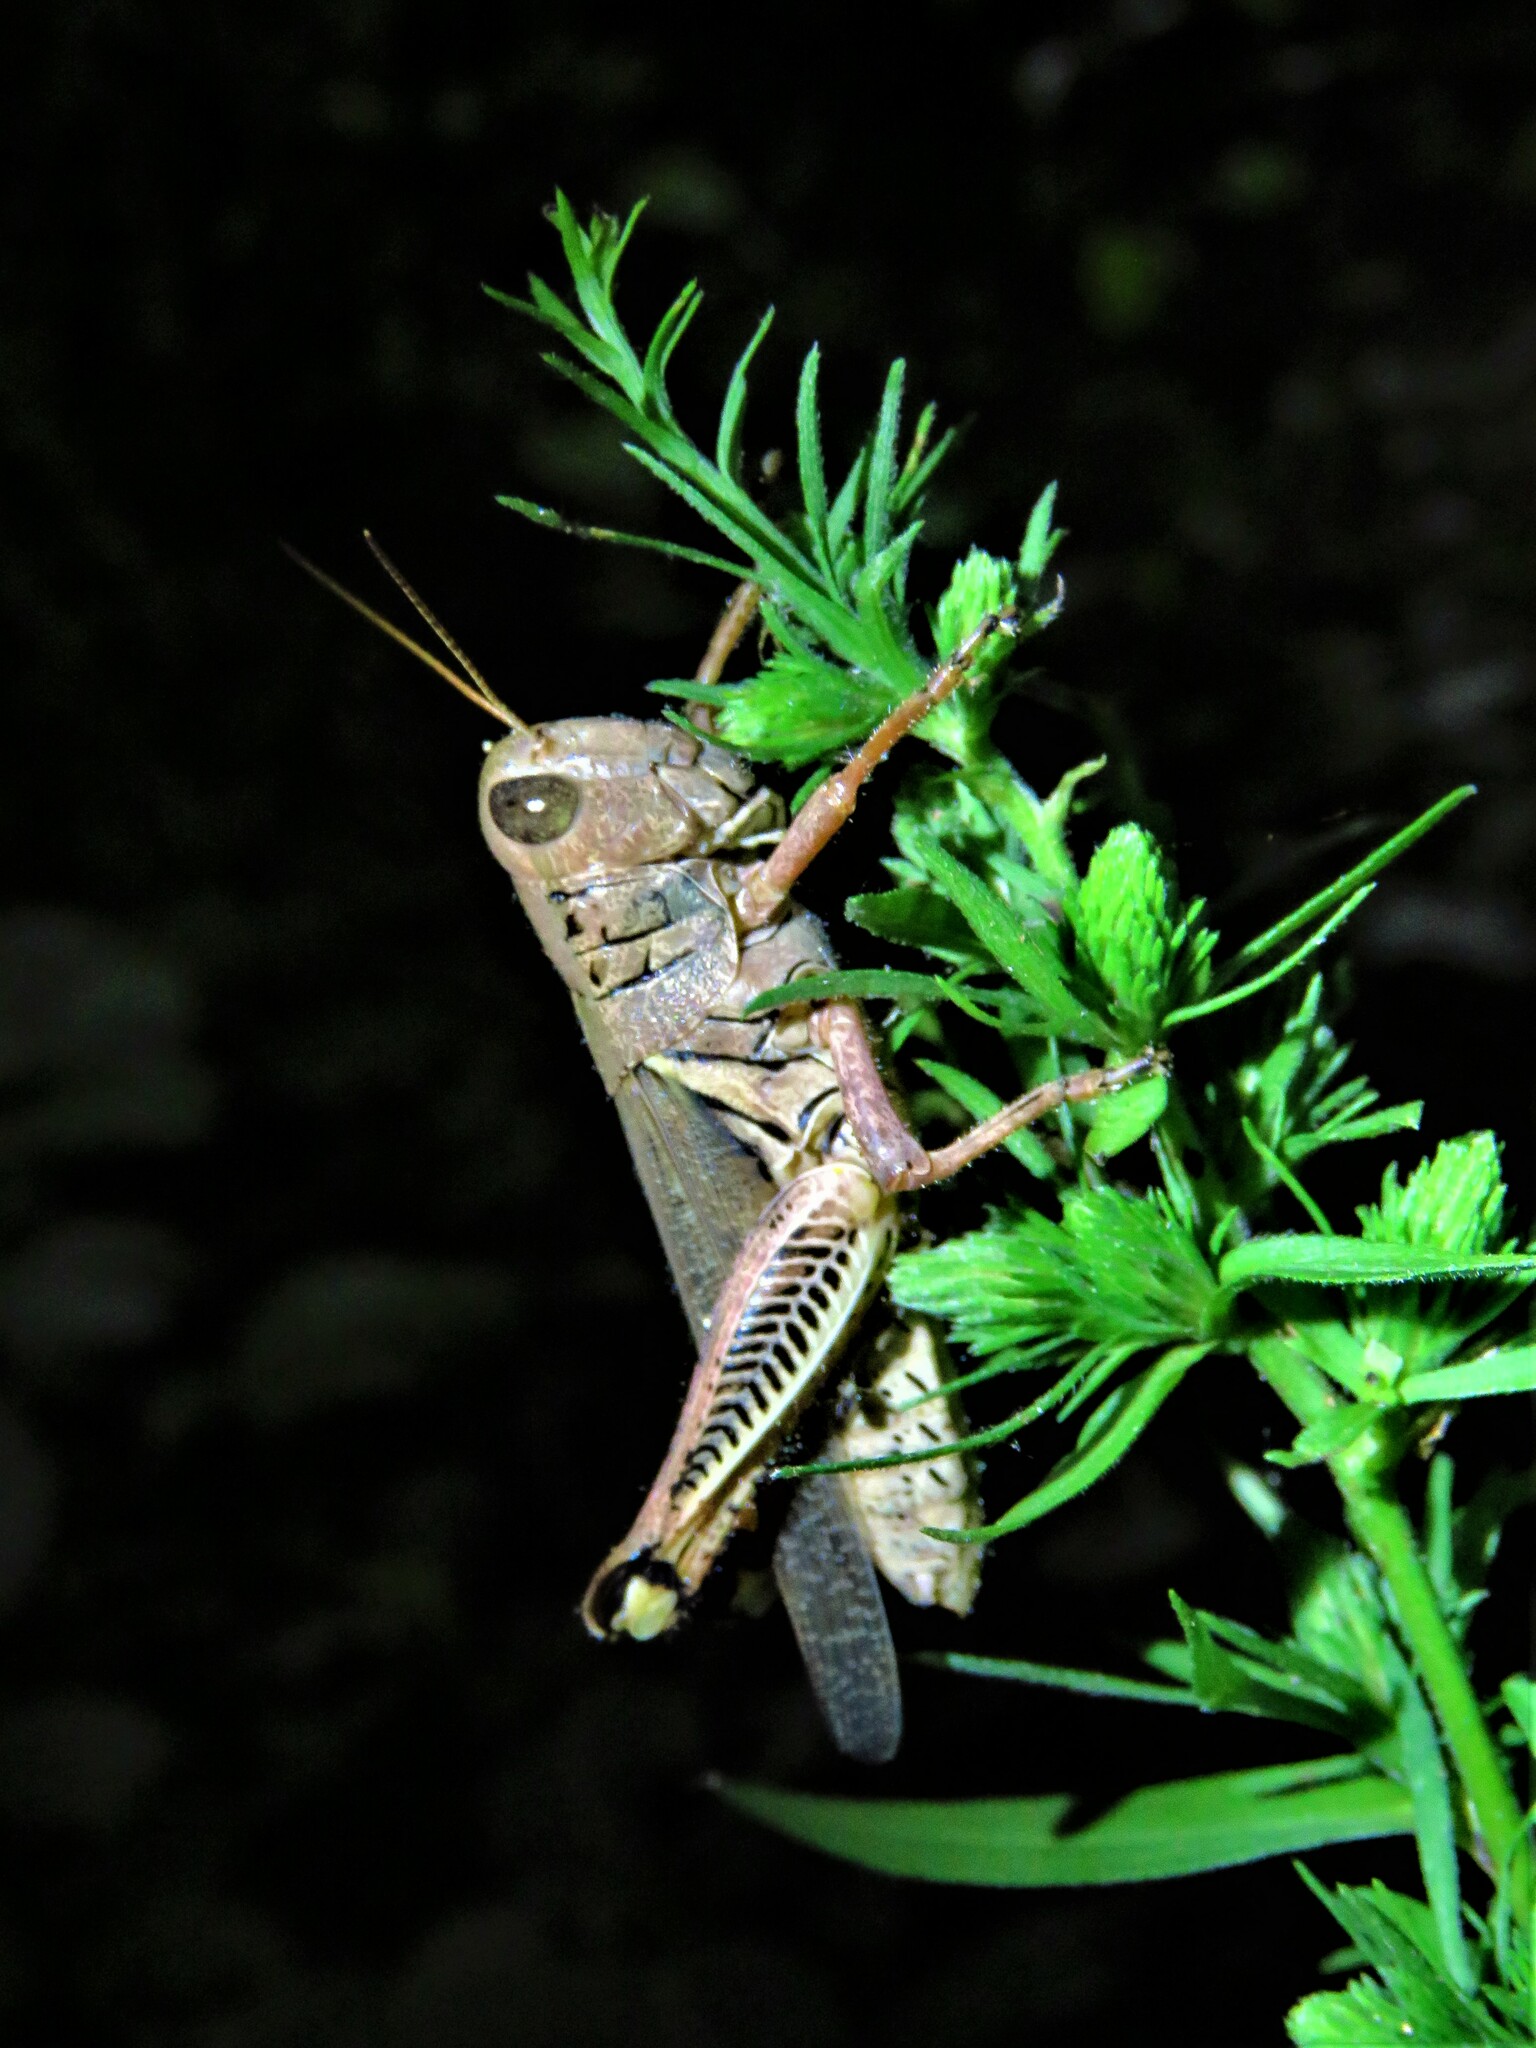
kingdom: Animalia
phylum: Arthropoda
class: Insecta
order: Orthoptera
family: Acrididae
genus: Melanoplus
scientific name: Melanoplus differentialis
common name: Differential grasshopper
